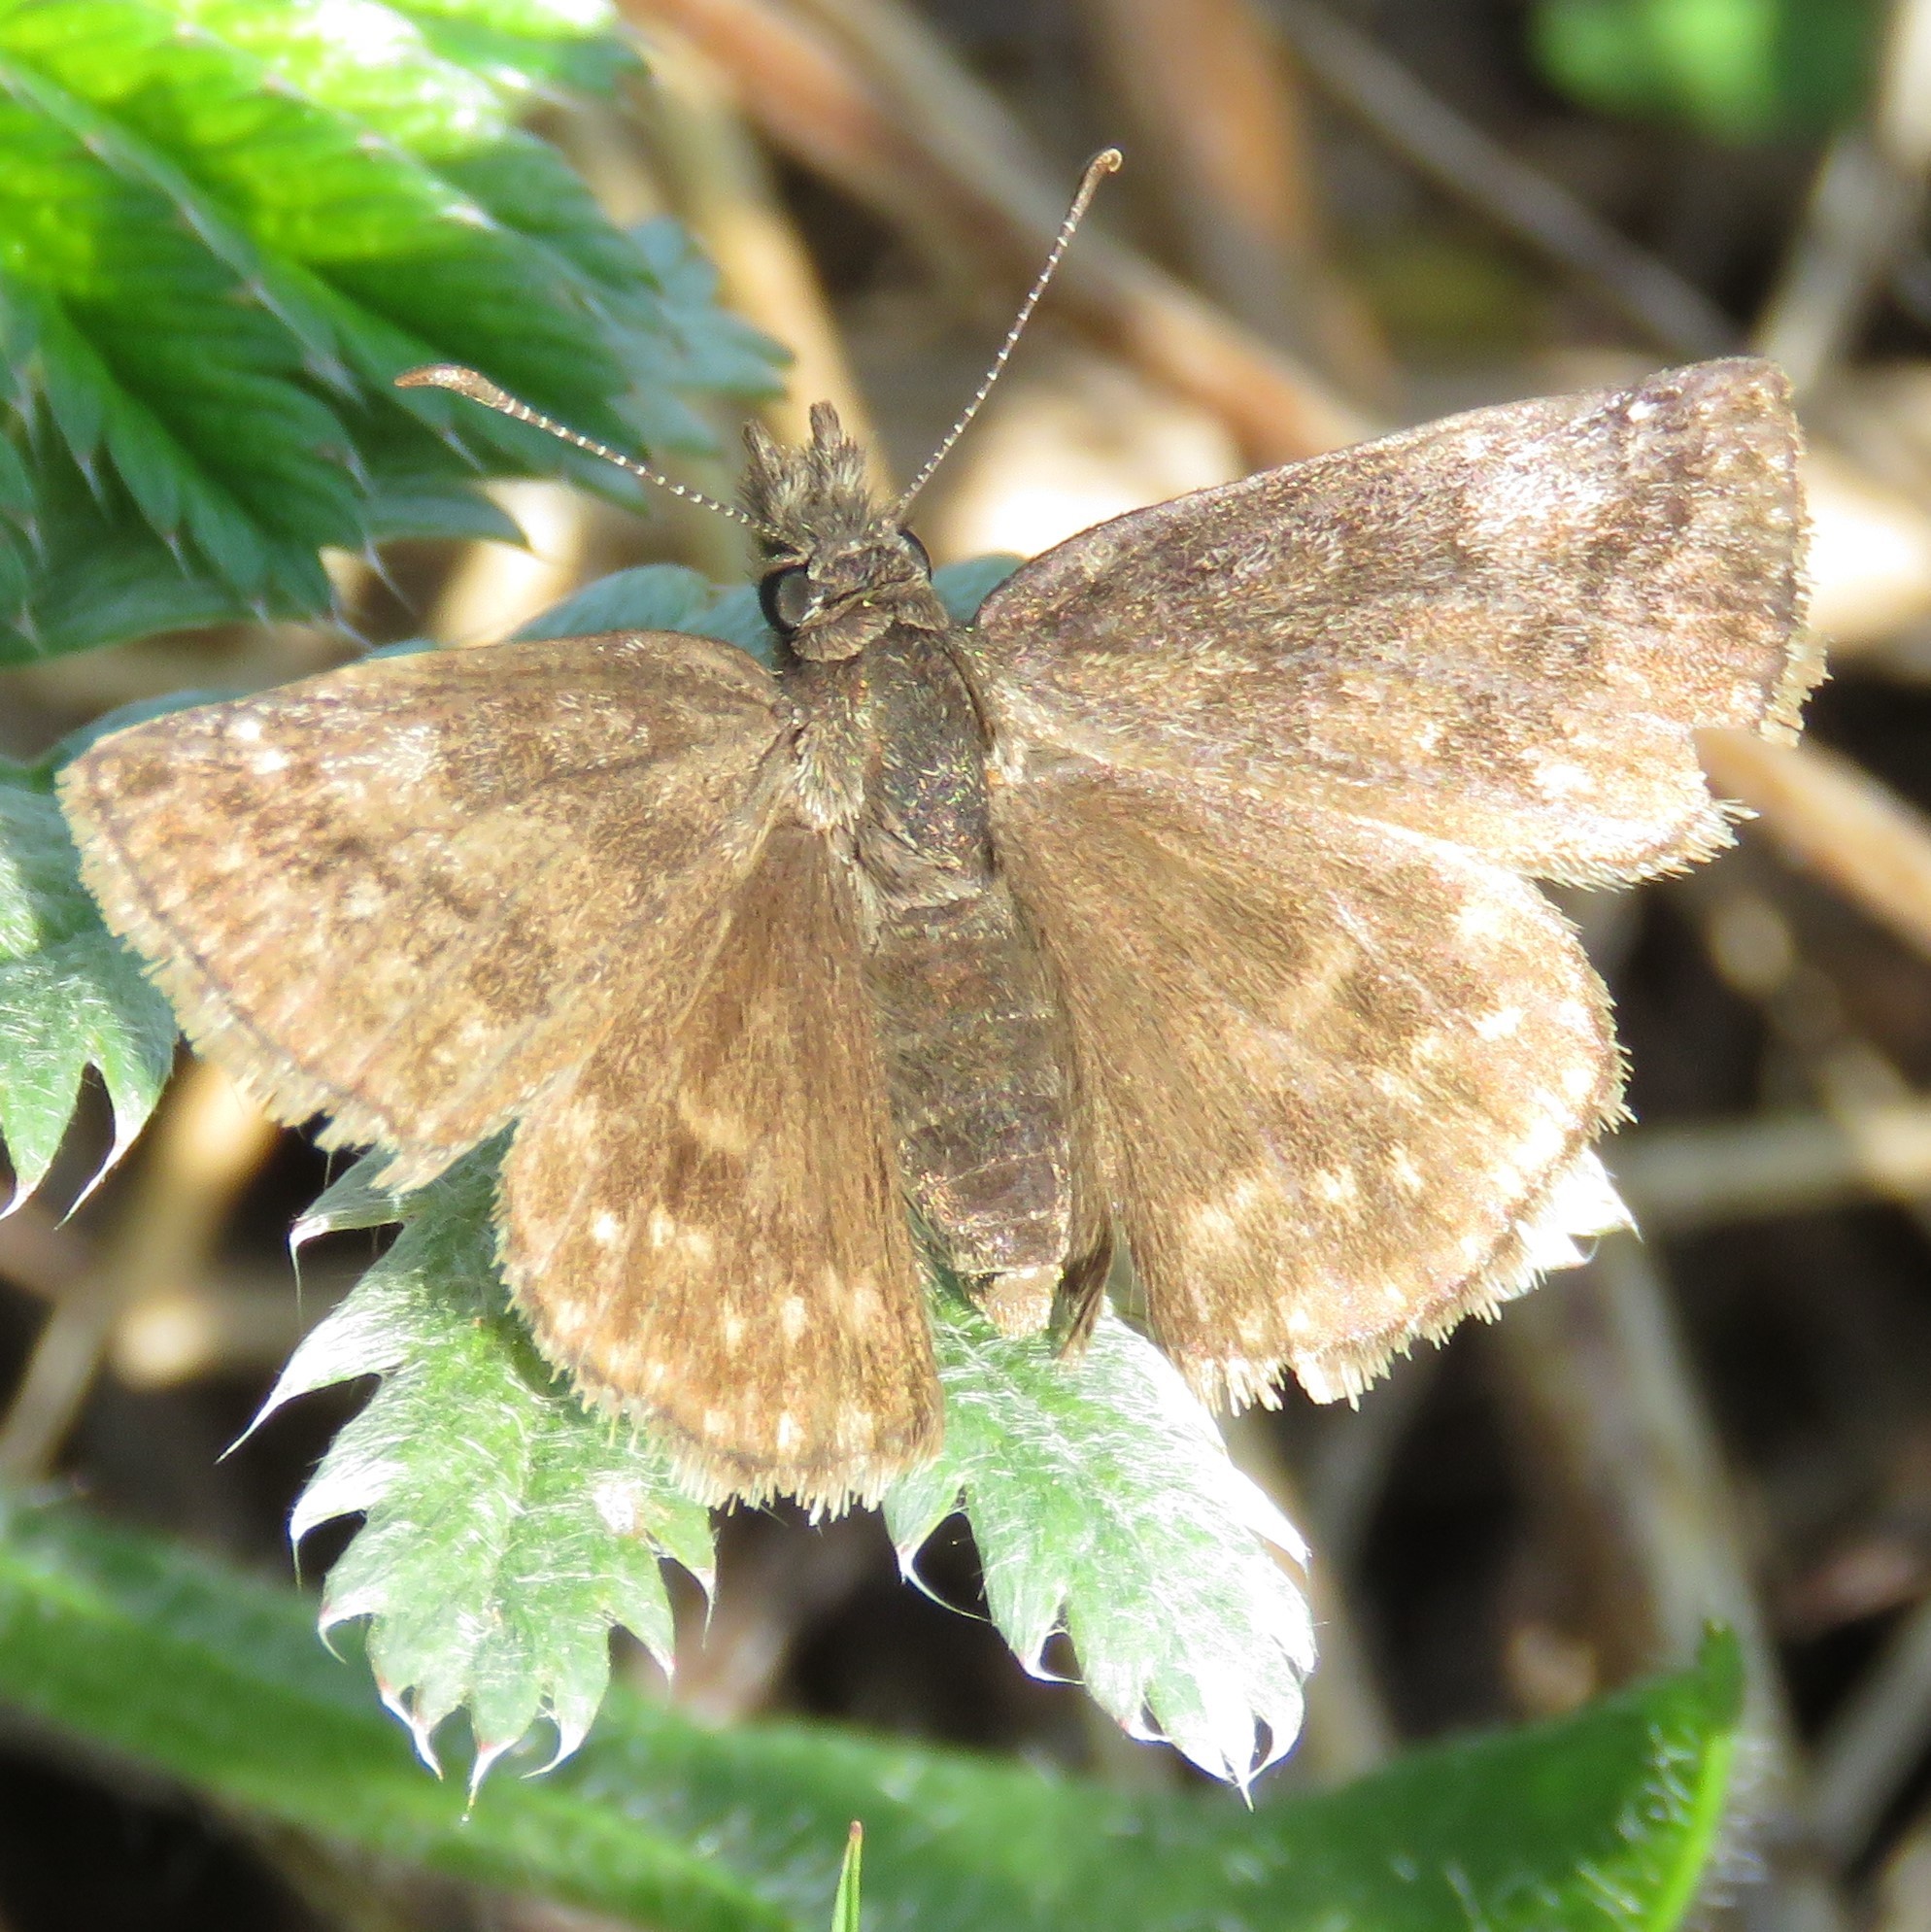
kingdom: Animalia
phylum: Arthropoda
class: Insecta
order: Lepidoptera
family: Hesperiidae
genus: Erynnis
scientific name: Erynnis icelus
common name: Dreamy duskywing
